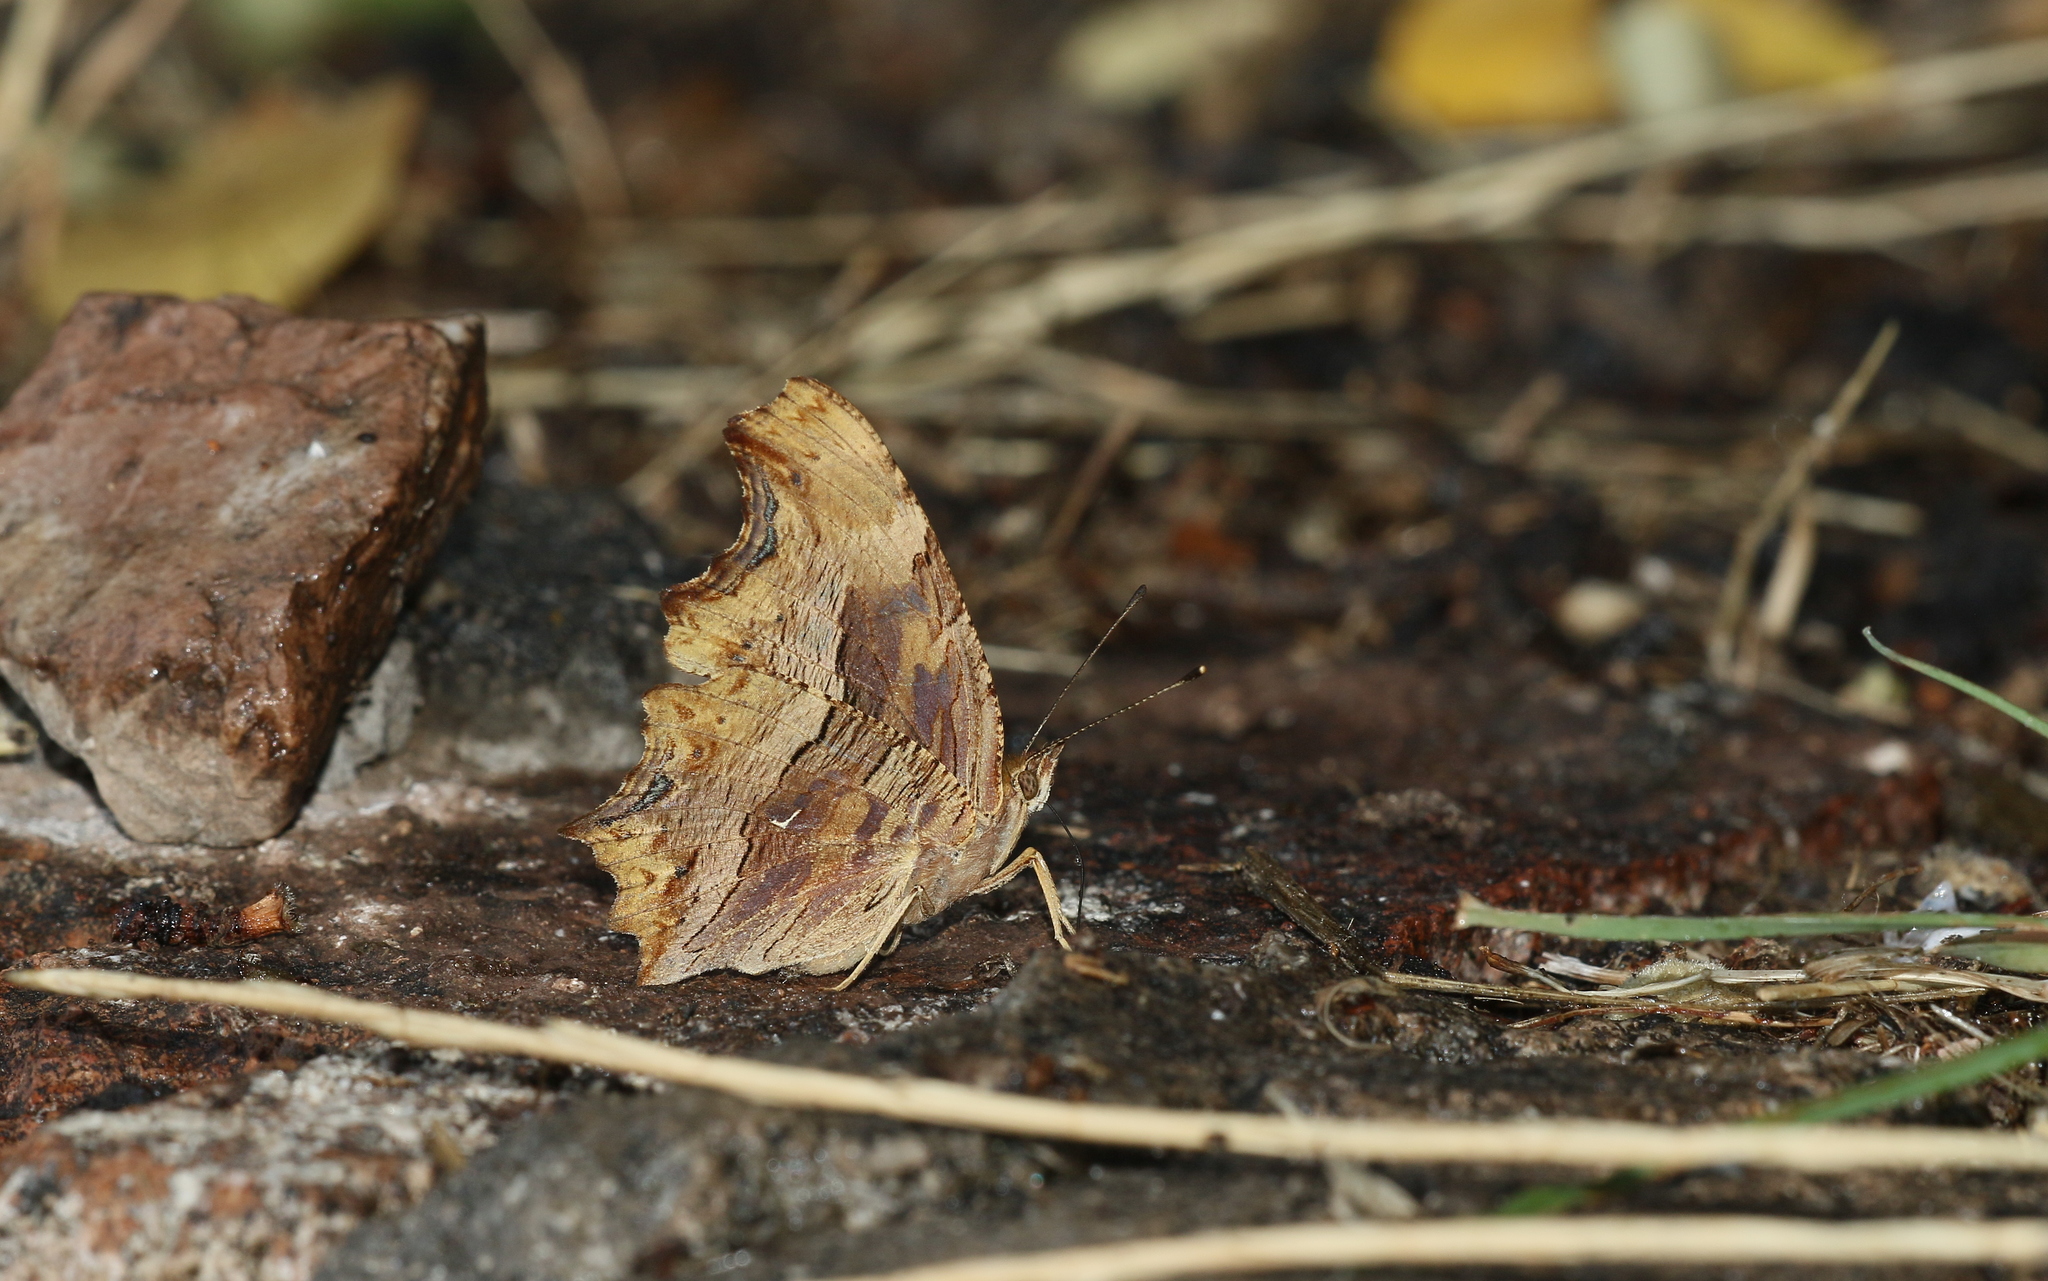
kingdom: Animalia
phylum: Arthropoda
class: Insecta
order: Lepidoptera
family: Nymphalidae
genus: Polygonia
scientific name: Polygonia egea
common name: Southern comma
